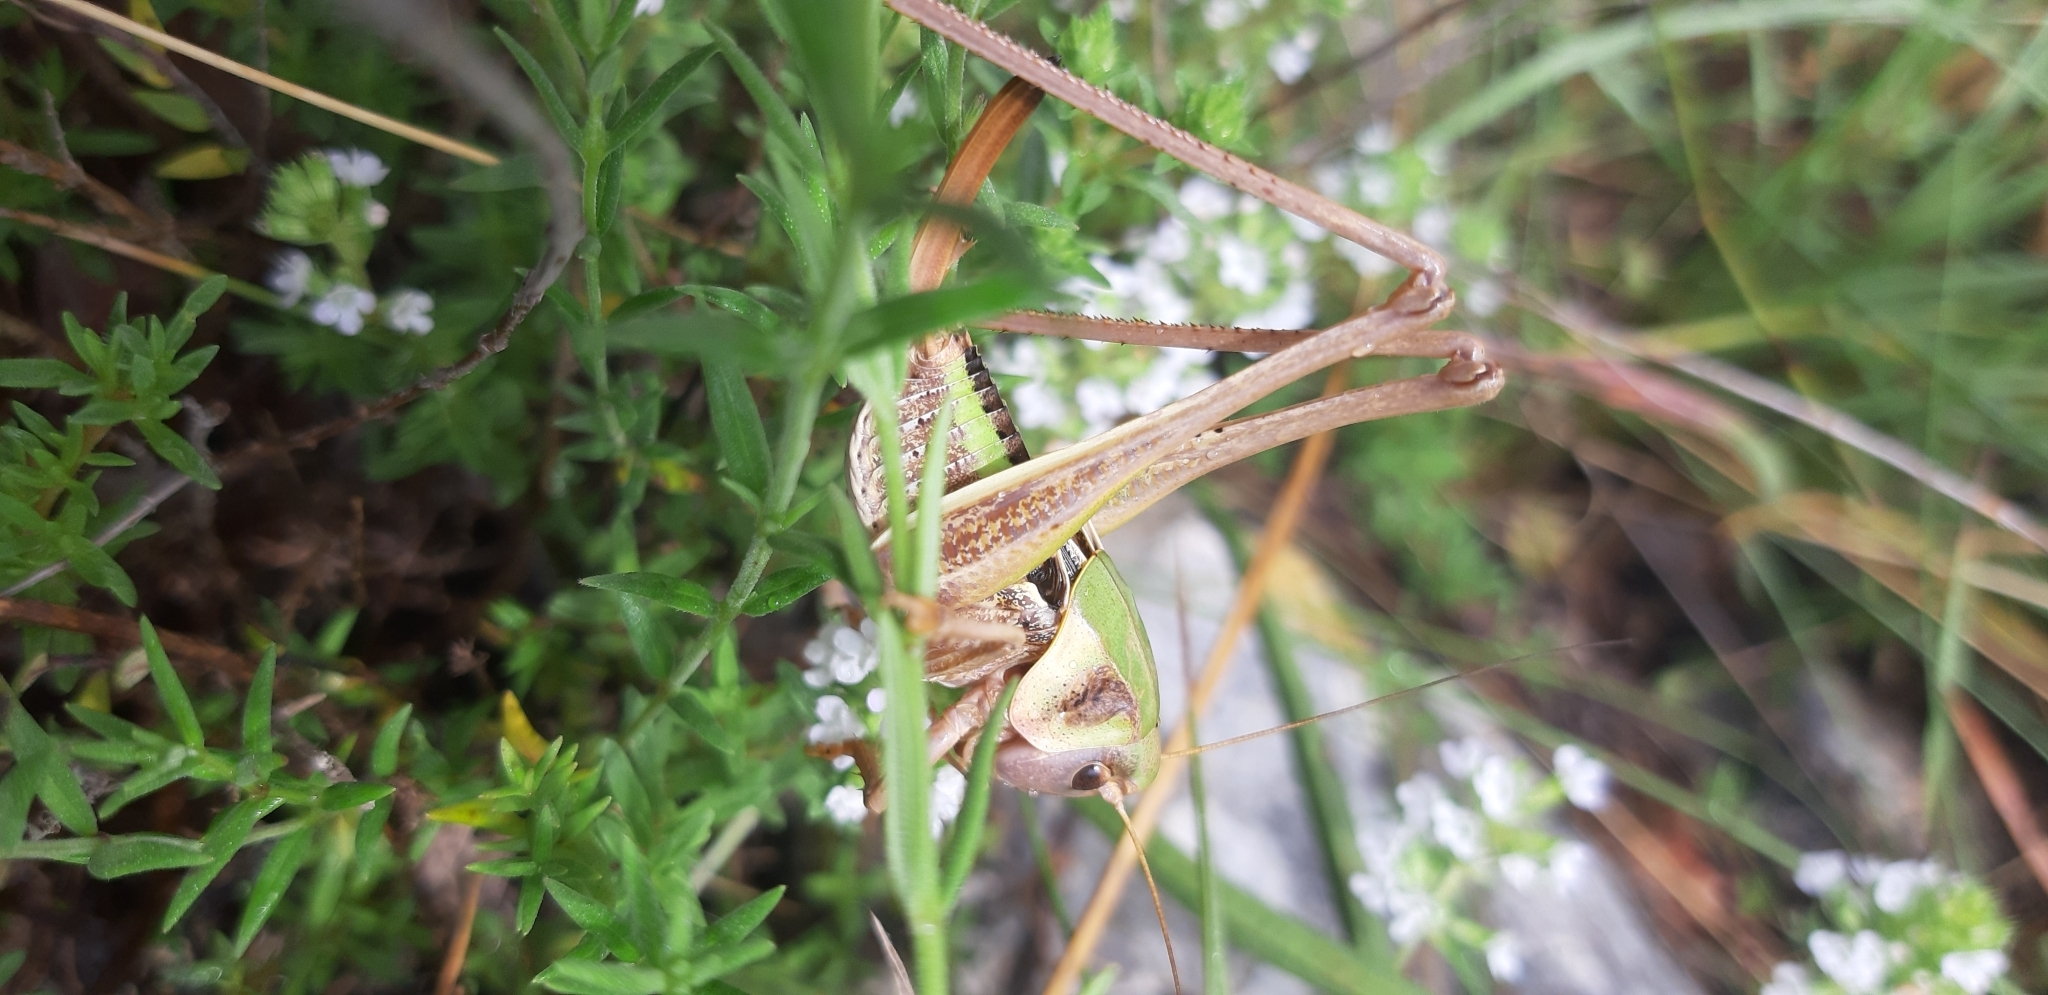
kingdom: Animalia
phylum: Arthropoda
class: Insecta
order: Orthoptera
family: Tettigoniidae
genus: Decticus
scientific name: Decticus loudoni
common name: Apulian wart-biter
